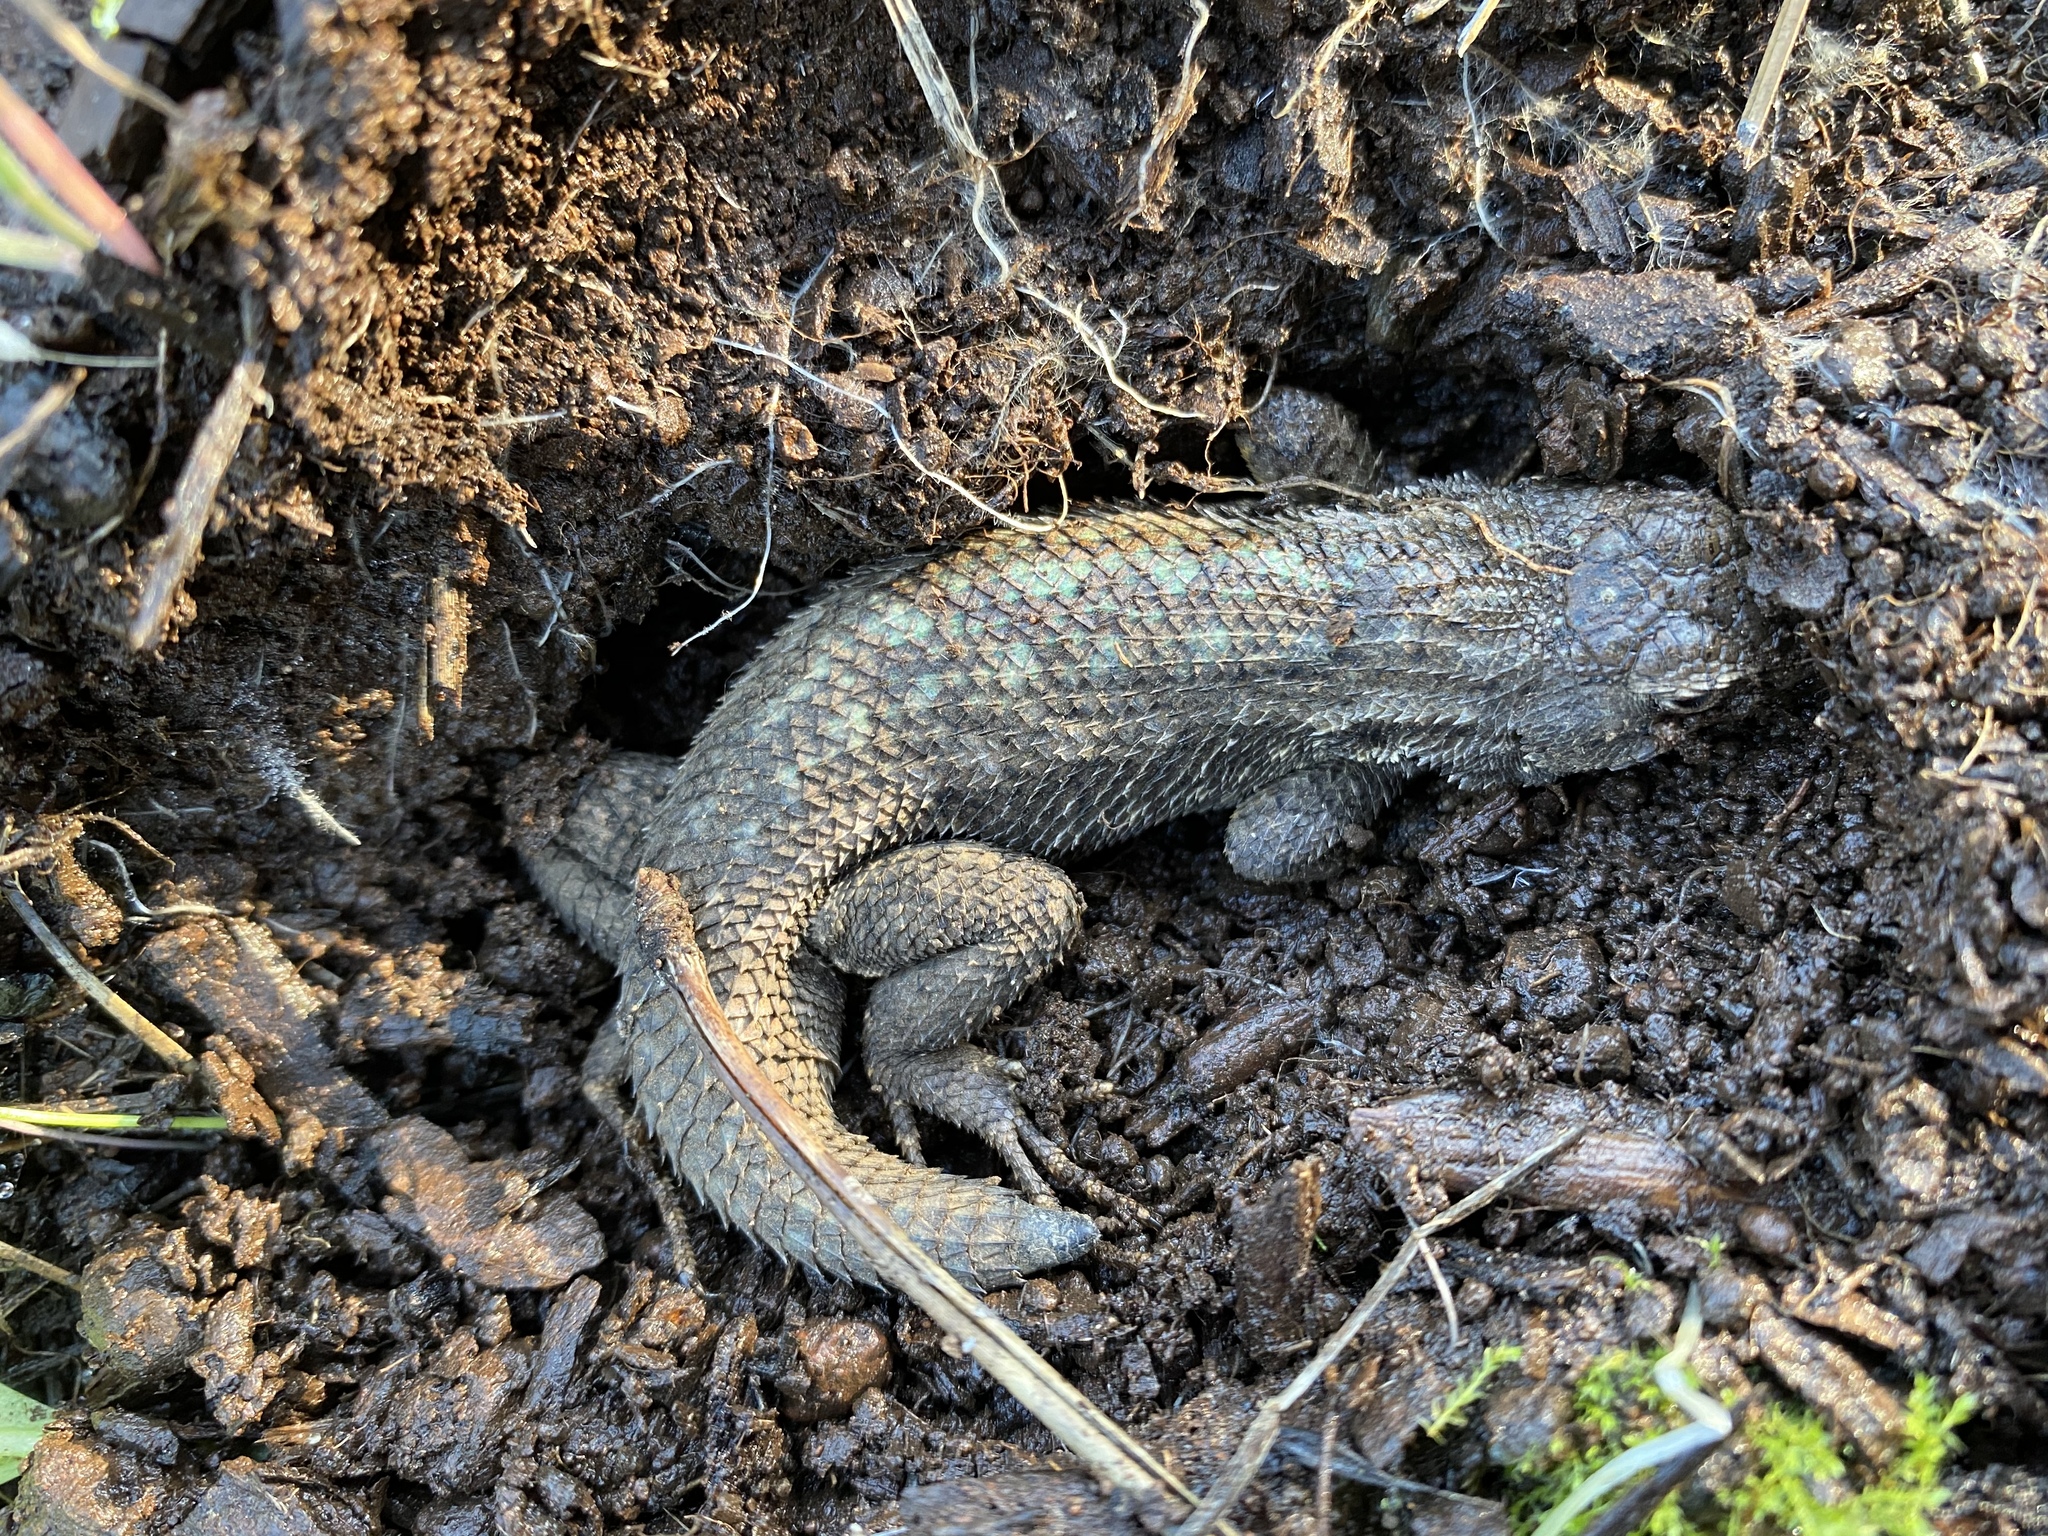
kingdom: Animalia
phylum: Chordata
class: Squamata
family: Phrynosomatidae
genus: Sceloporus
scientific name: Sceloporus occidentalis
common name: Western fence lizard
